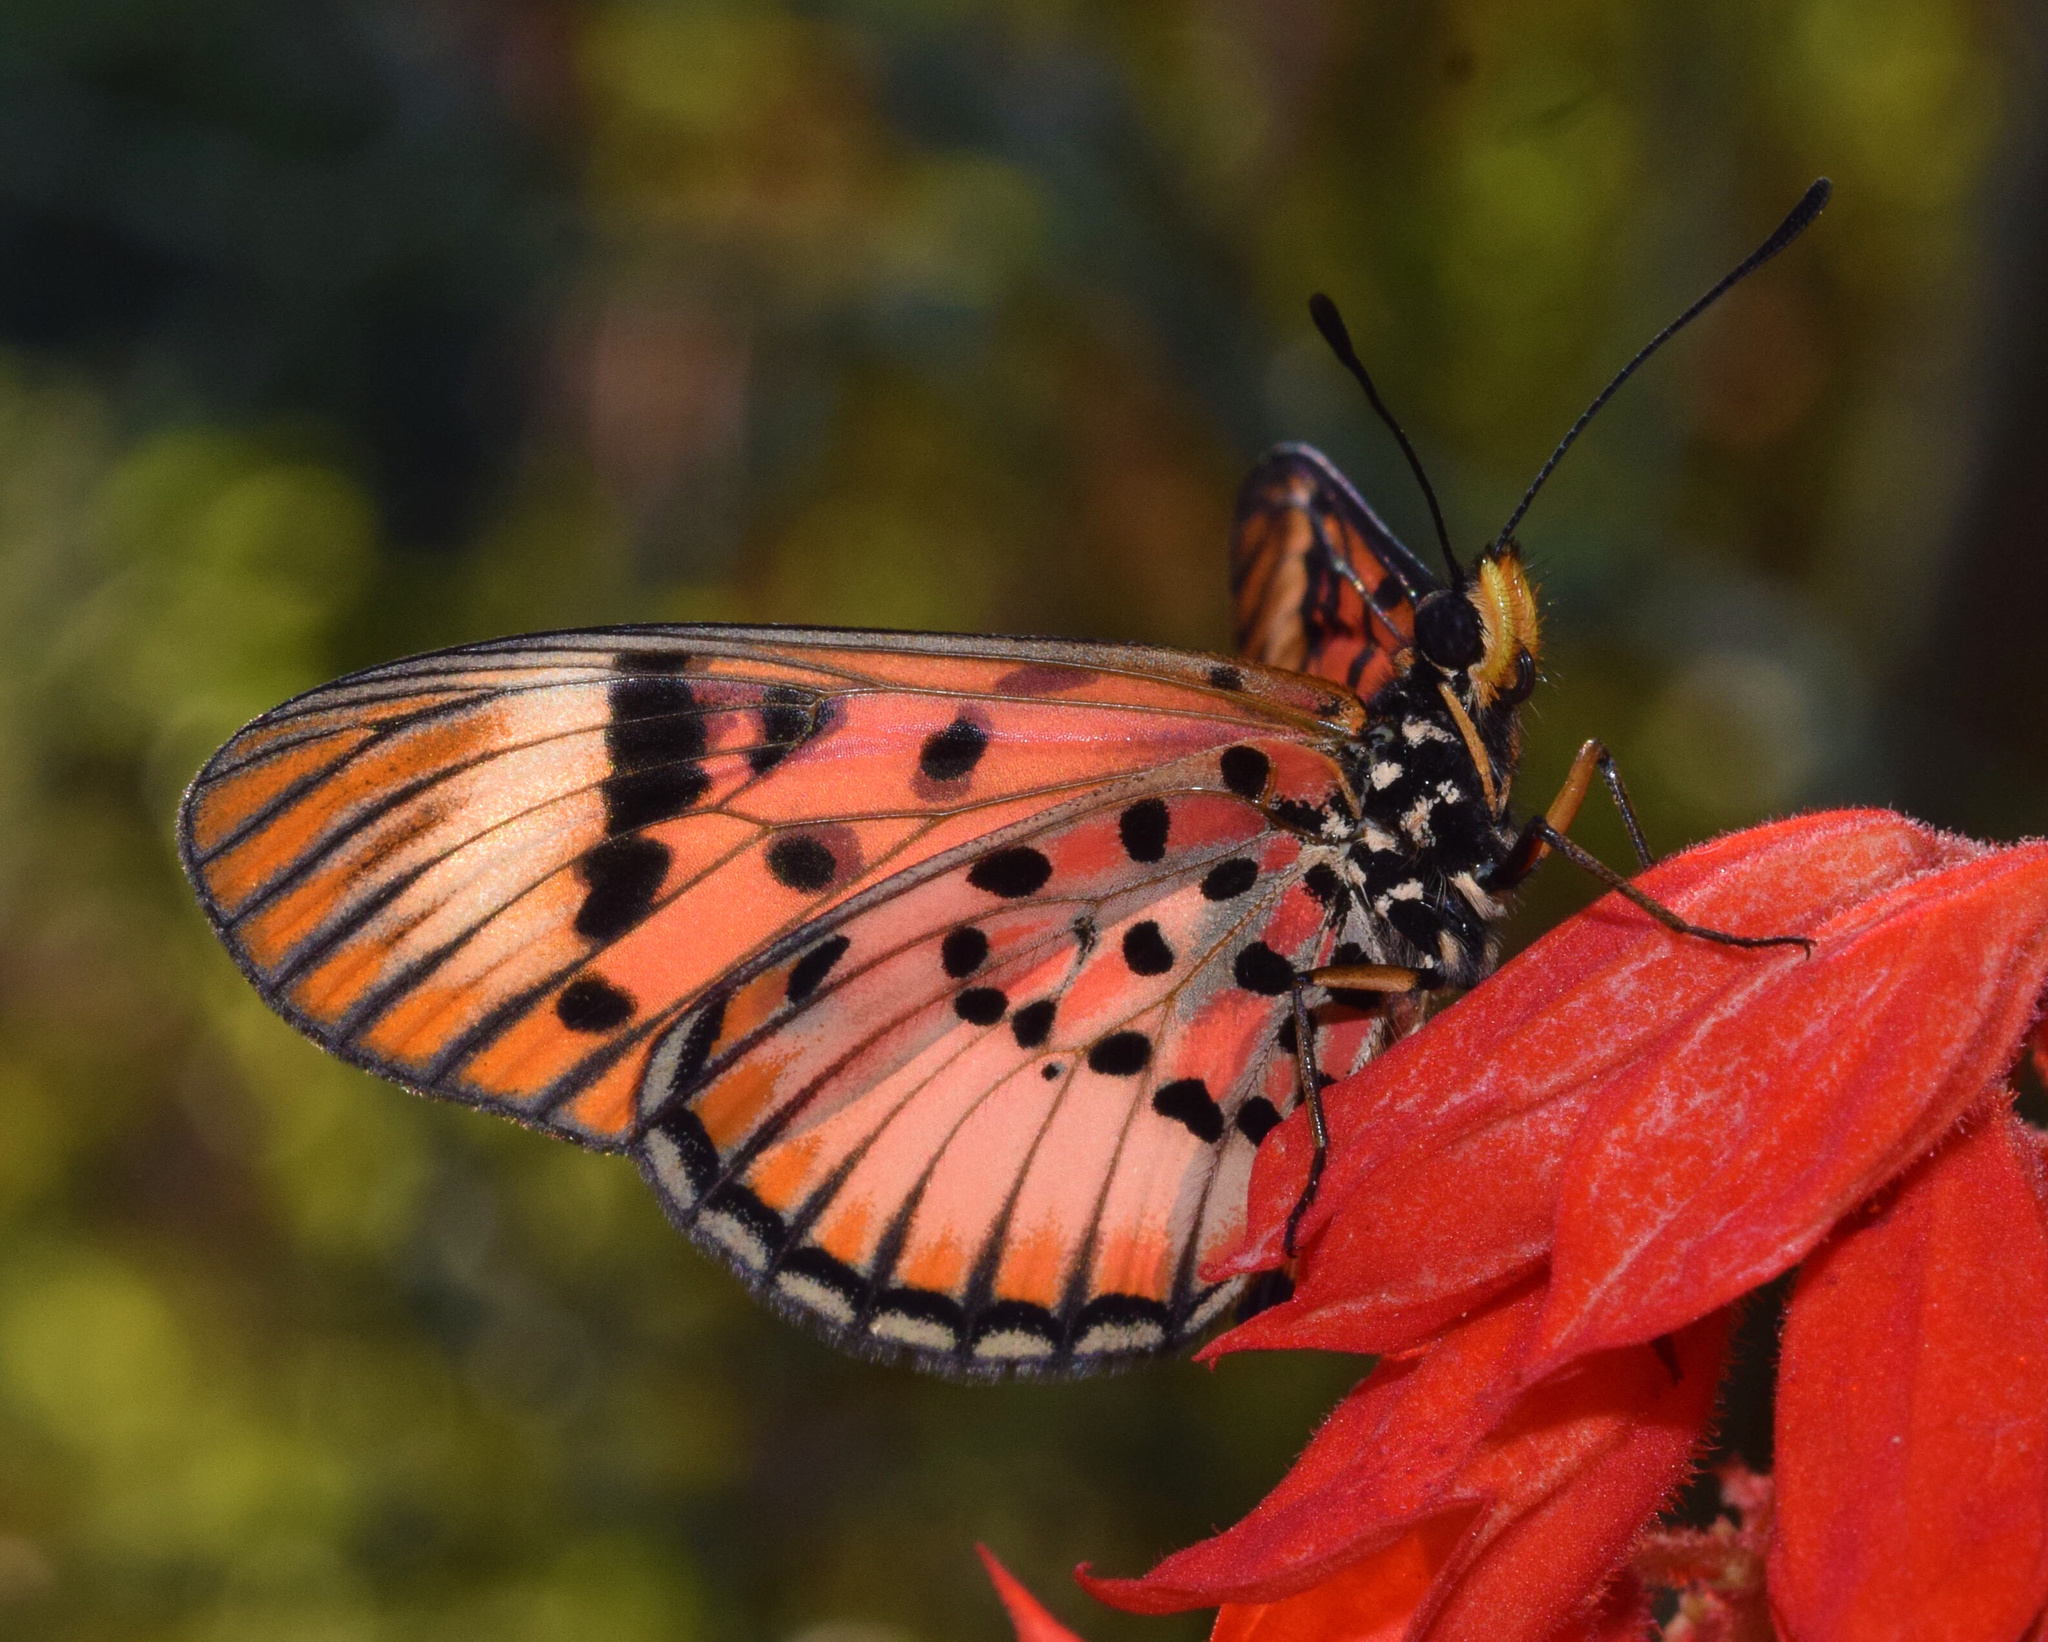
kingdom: Animalia
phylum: Arthropoda
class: Insecta
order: Lepidoptera
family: Nymphalidae
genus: Rubraea
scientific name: Rubraea
